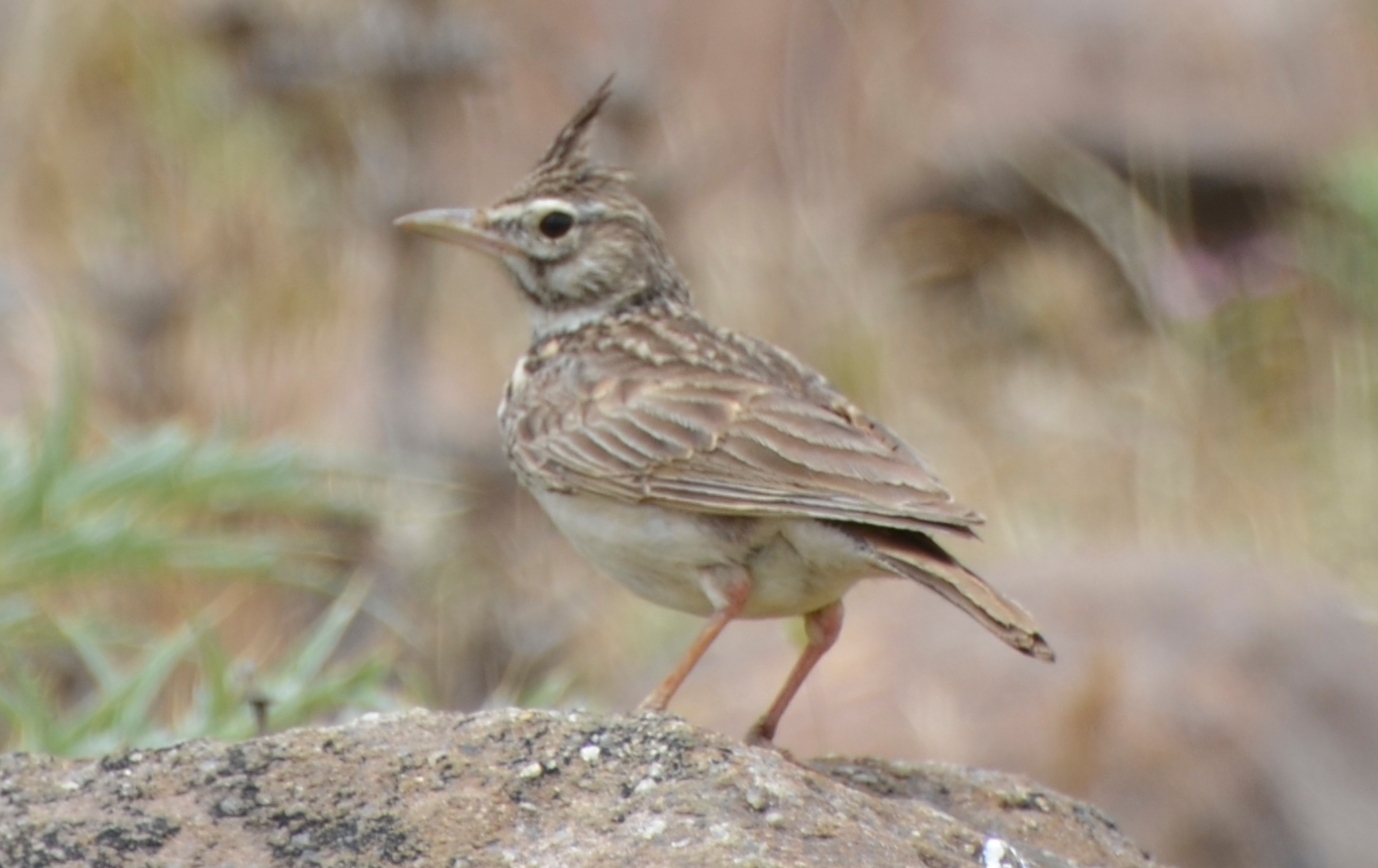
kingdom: Animalia
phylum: Chordata
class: Aves
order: Passeriformes
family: Alaudidae
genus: Galerida
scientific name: Galerida cristata
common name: Crested lark
